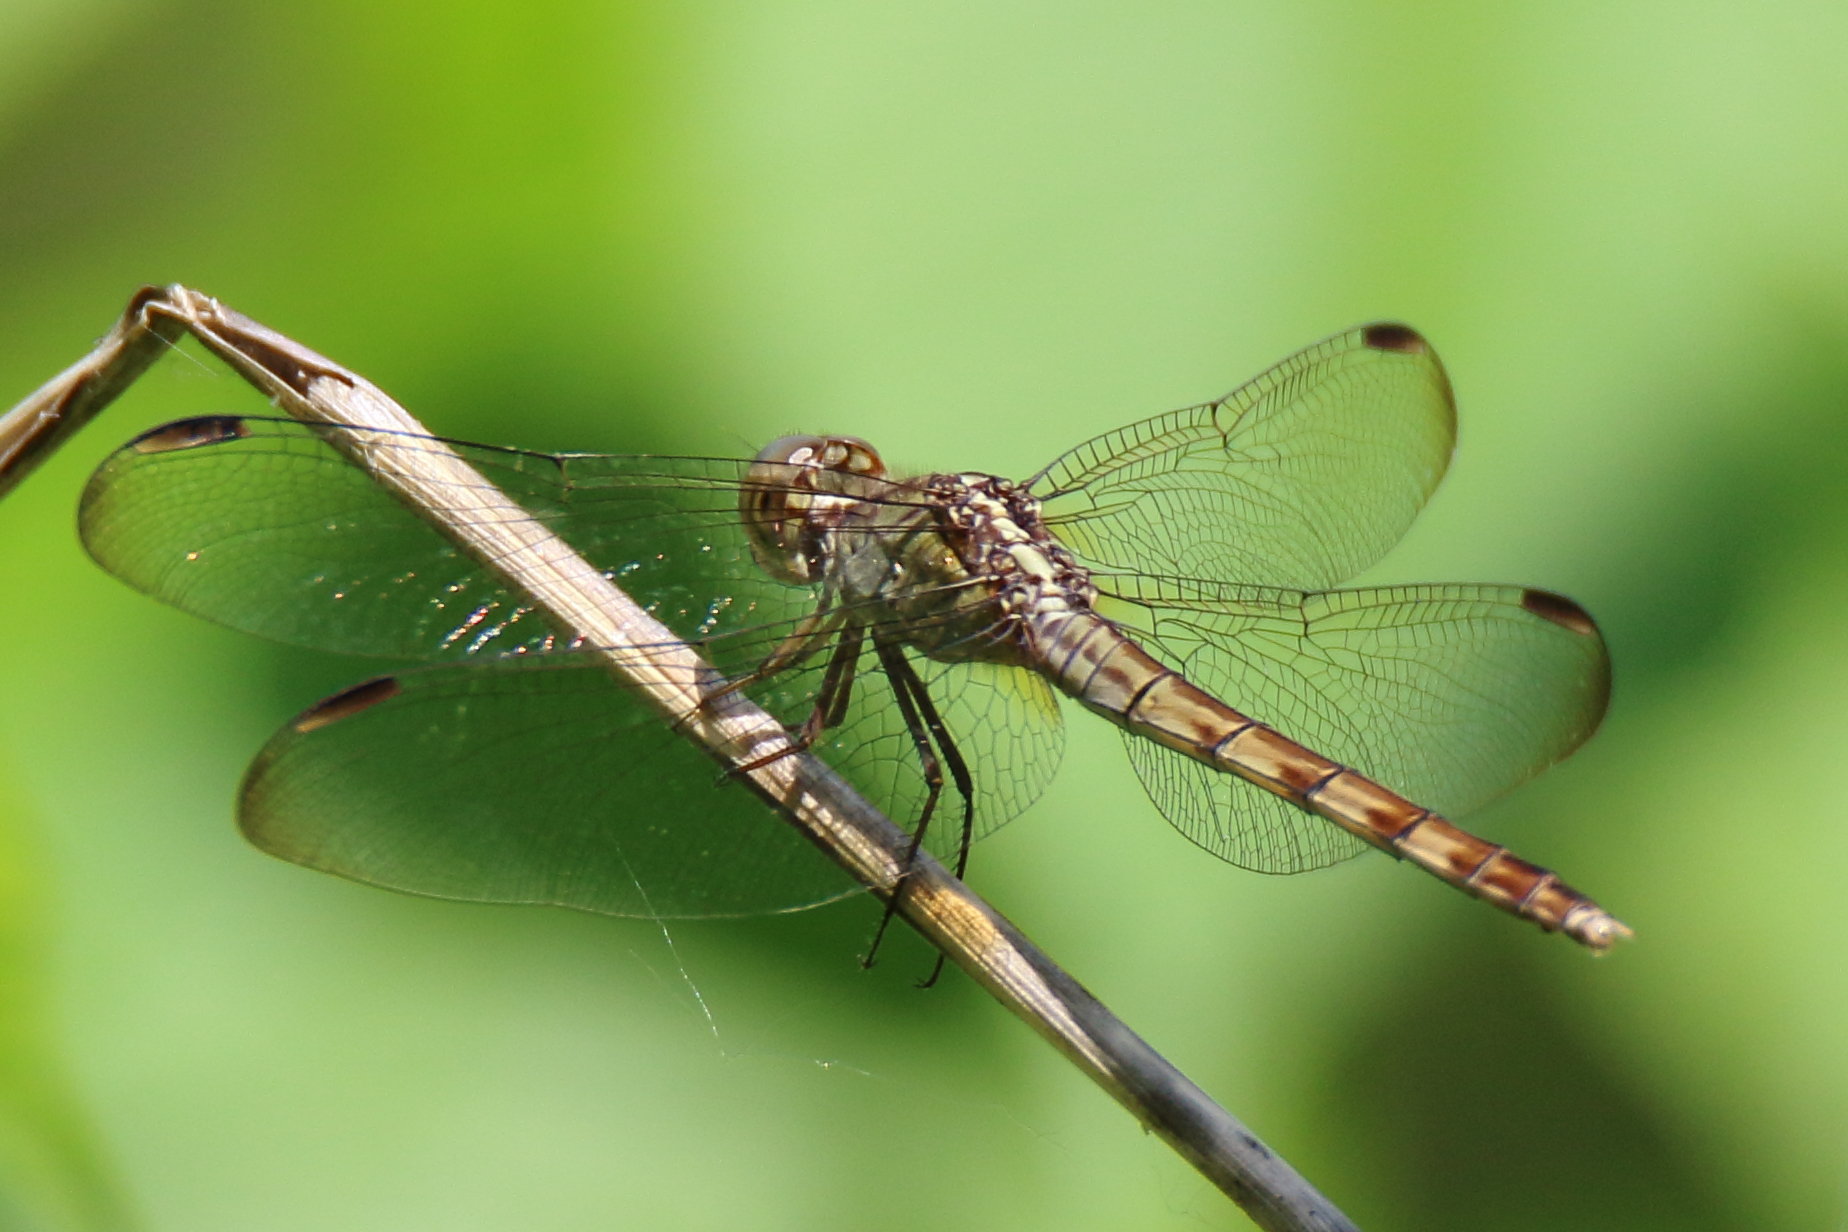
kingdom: Animalia
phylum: Arthropoda
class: Insecta
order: Odonata
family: Libellulidae
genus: Erythrodiplax
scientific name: Erythrodiplax umbrata
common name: Band-winged dragonlet
